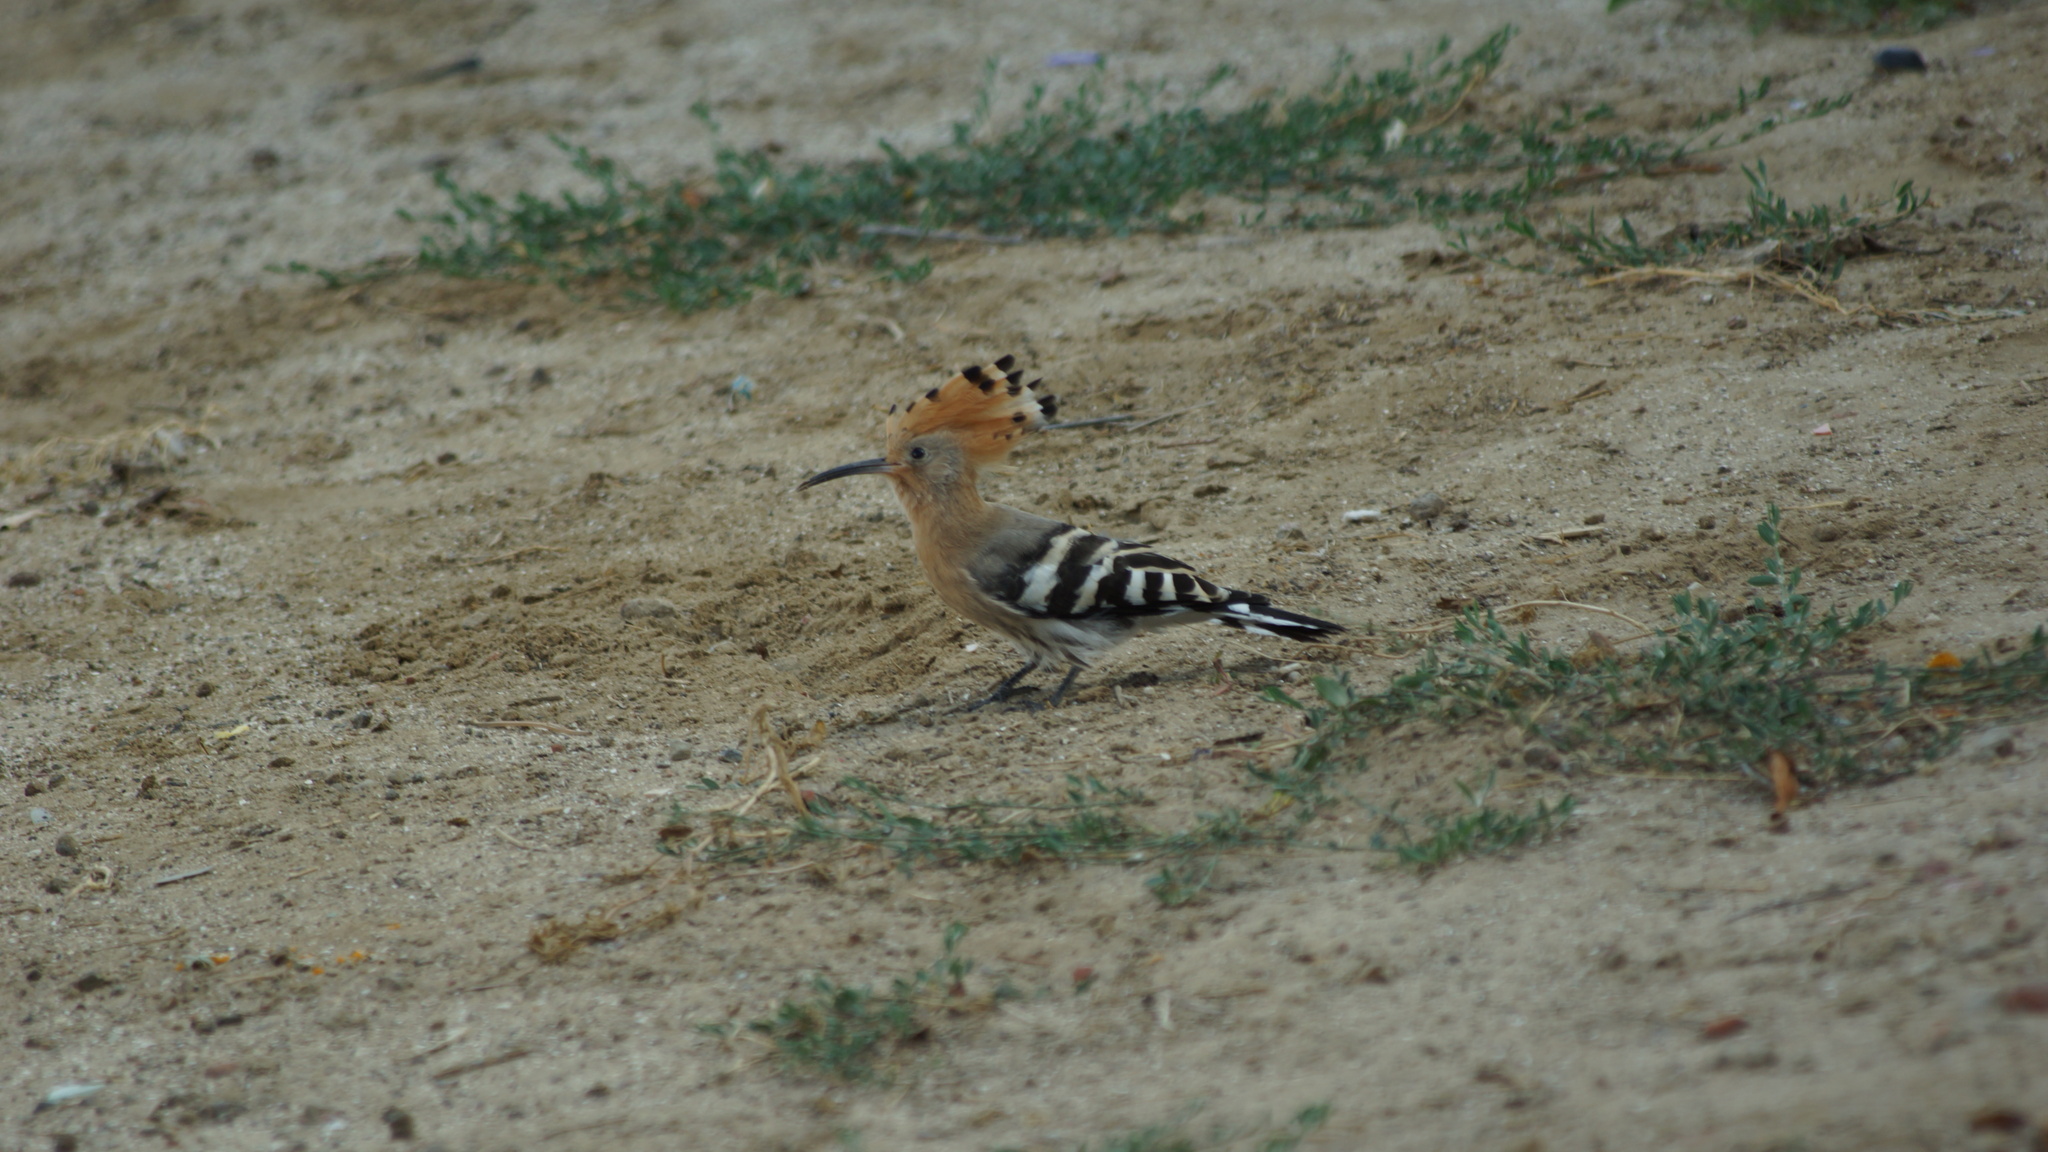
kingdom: Animalia
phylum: Chordata
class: Aves
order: Bucerotiformes
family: Upupidae
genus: Upupa
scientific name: Upupa epops
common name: Eurasian hoopoe
